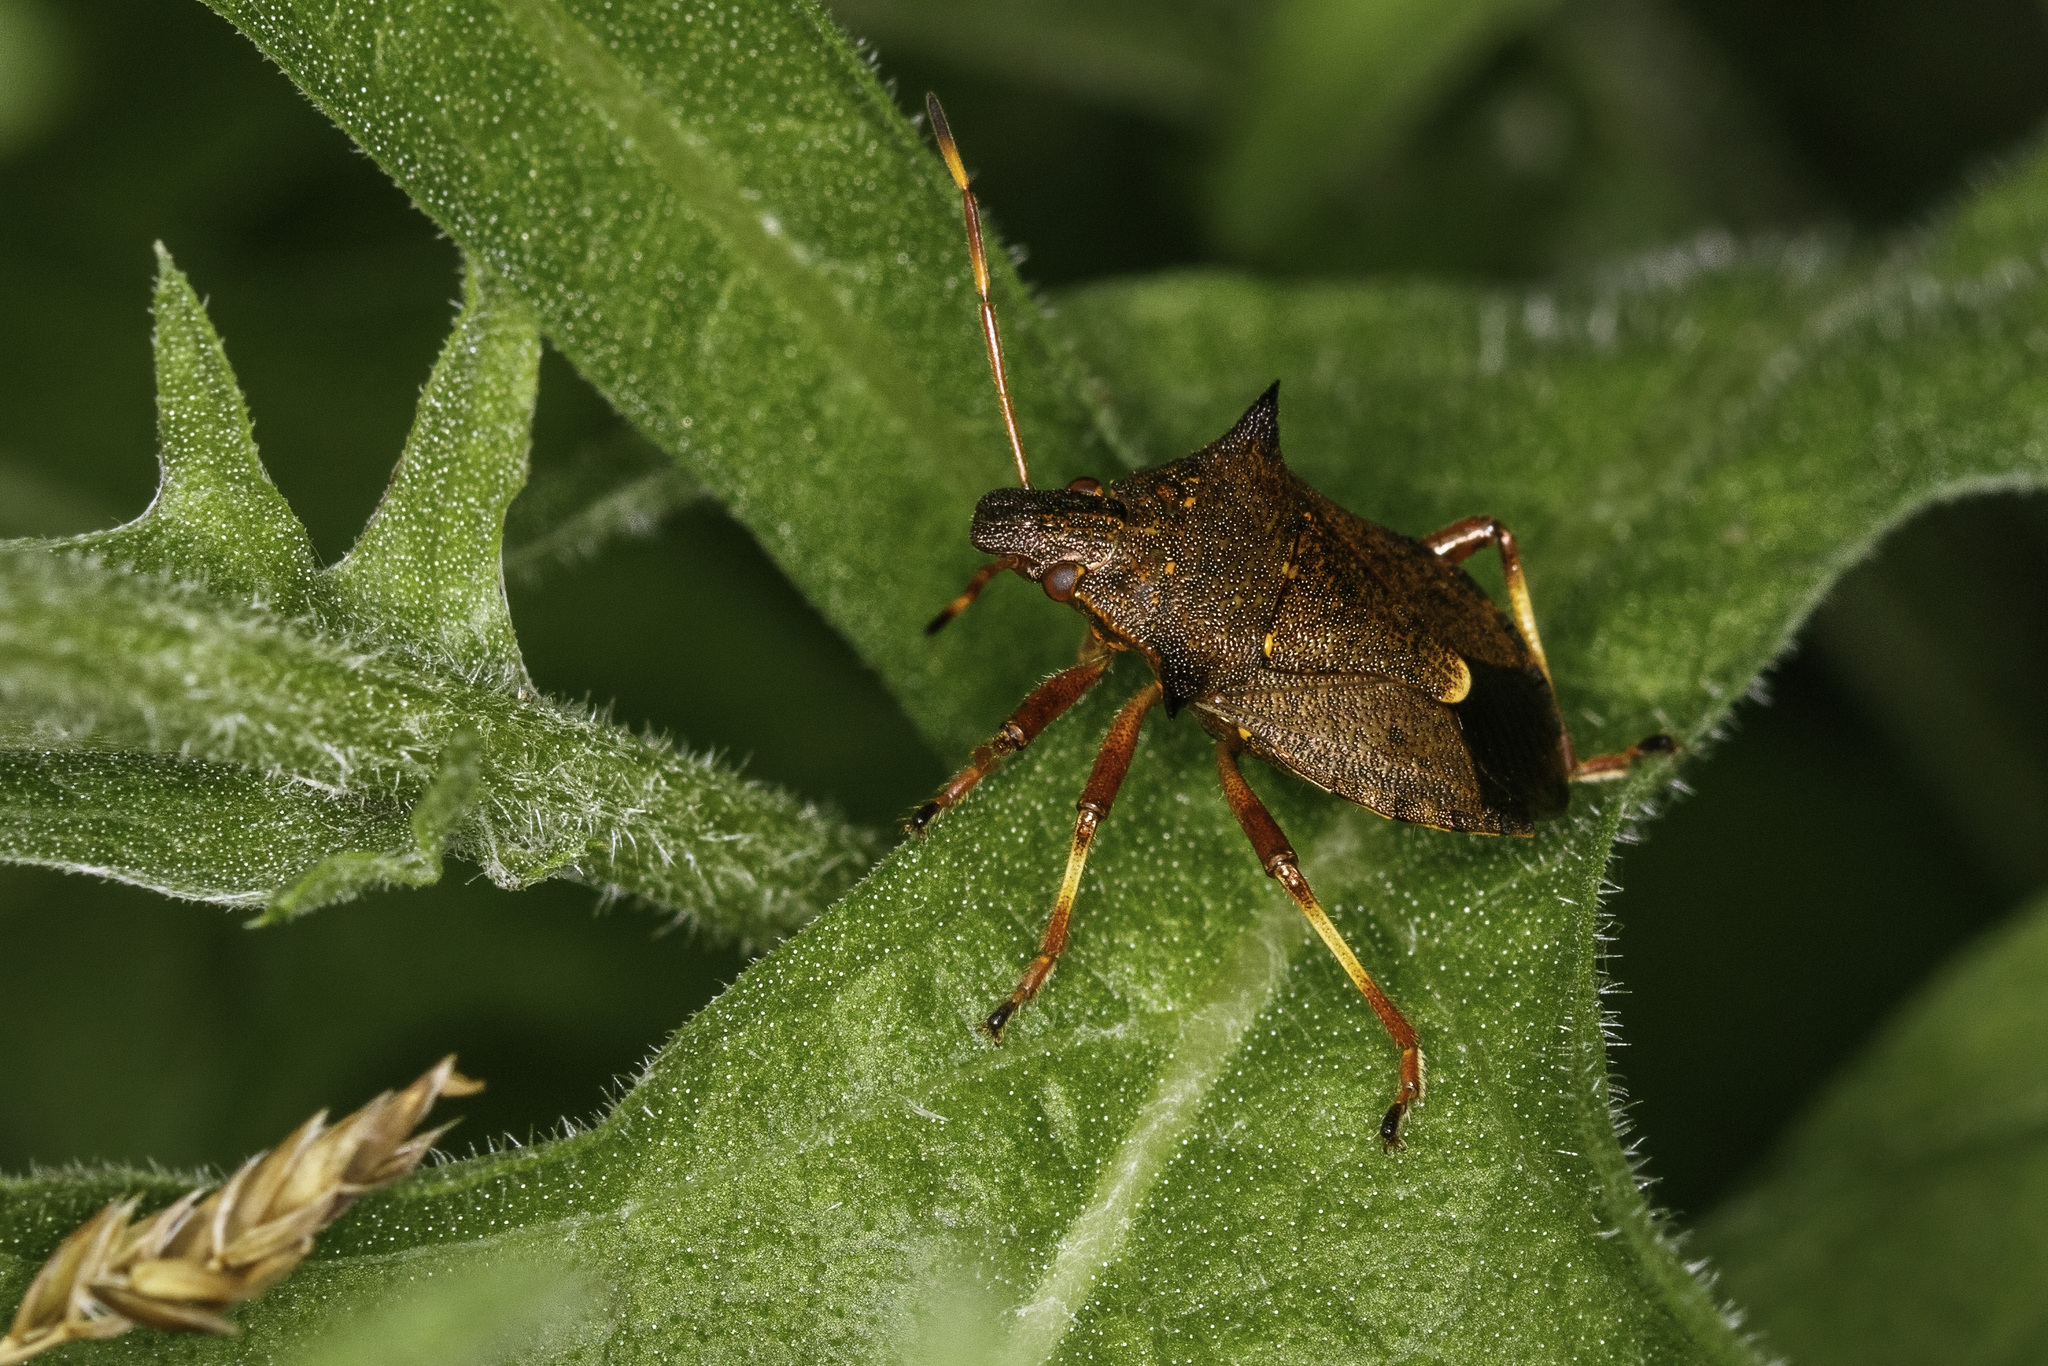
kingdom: Animalia
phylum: Arthropoda
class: Insecta
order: Hemiptera
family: Pentatomidae
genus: Picromerus
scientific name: Picromerus bidens
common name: Spiked shieldbug
